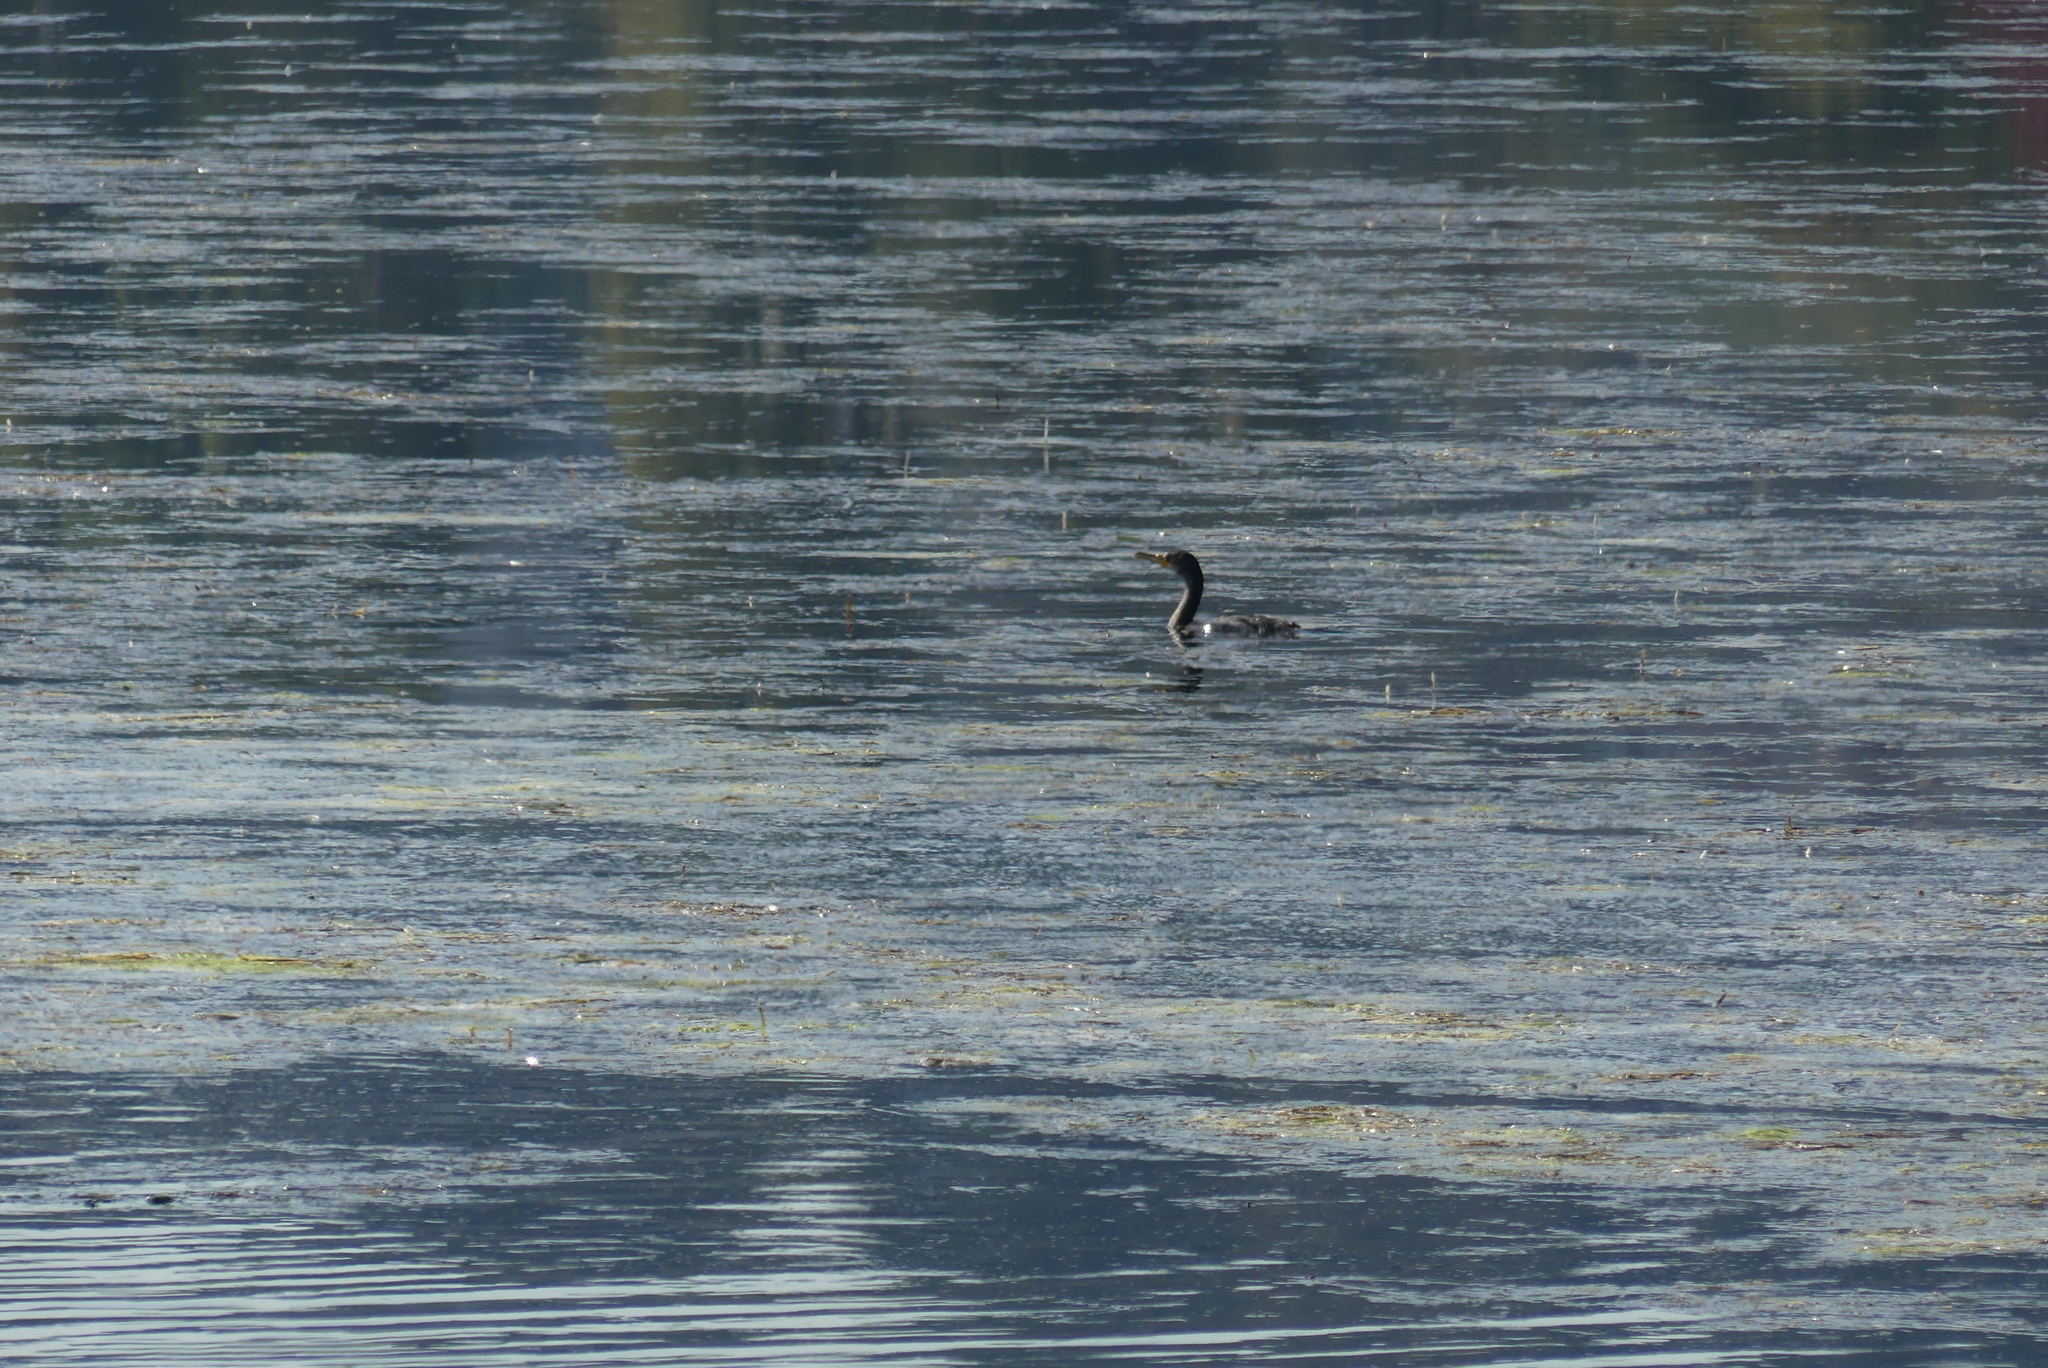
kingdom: Animalia
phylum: Chordata
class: Aves
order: Suliformes
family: Phalacrocoracidae
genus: Phalacrocorax
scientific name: Phalacrocorax auritus
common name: Double-crested cormorant
